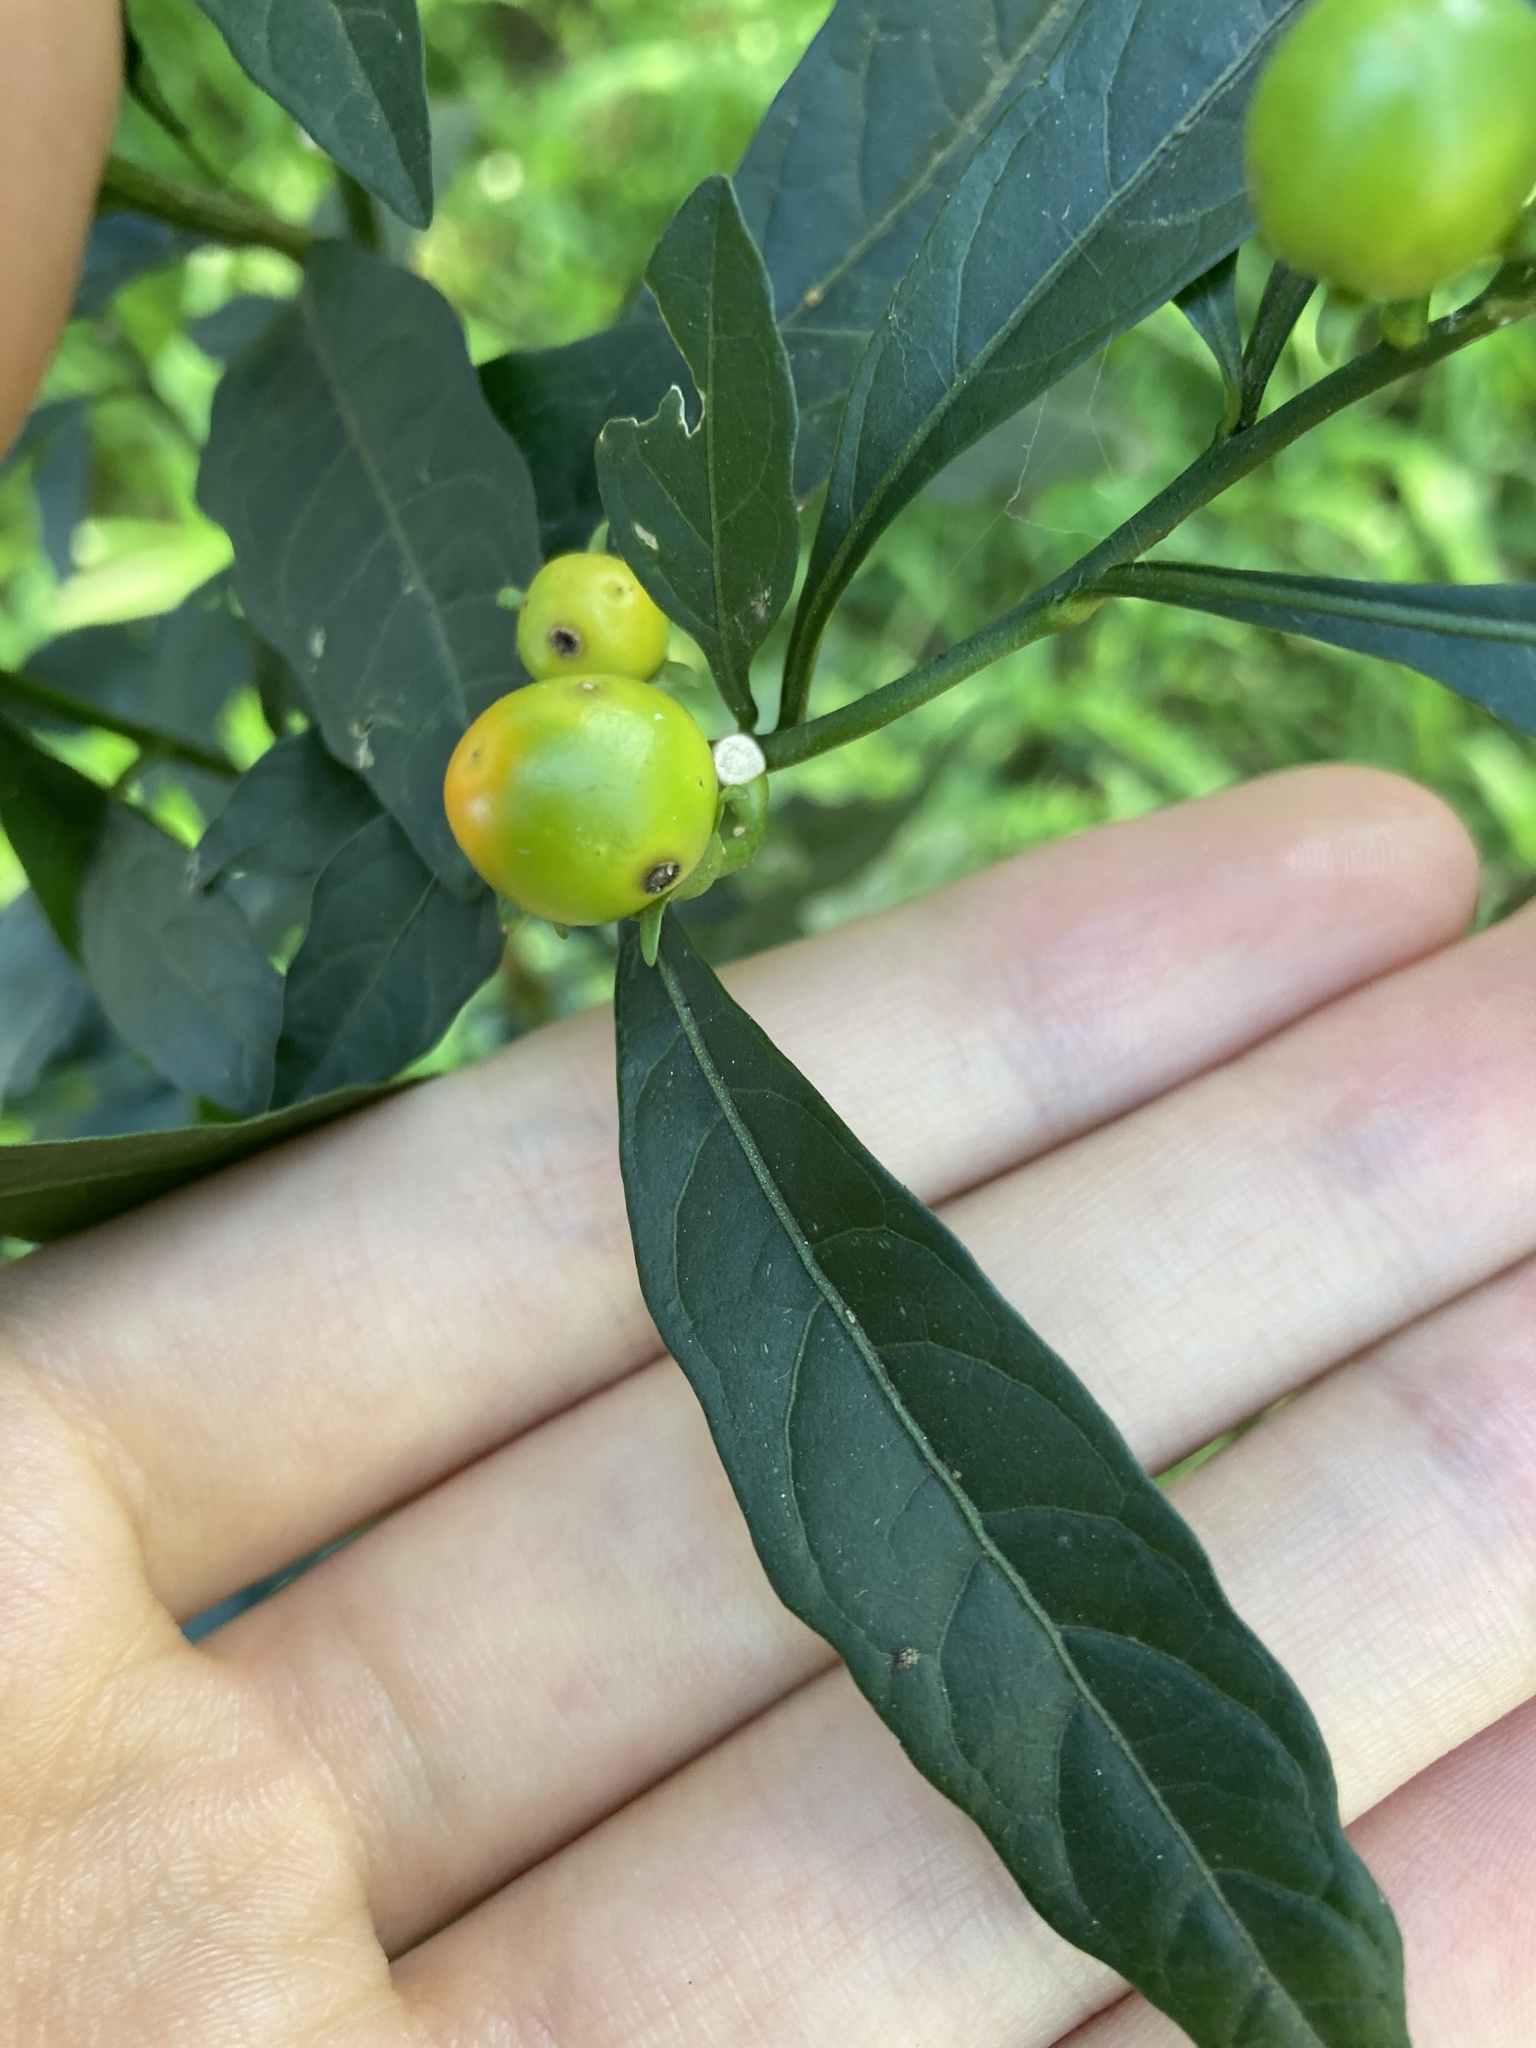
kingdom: Plantae
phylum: Tracheophyta
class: Magnoliopsida
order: Solanales
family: Solanaceae
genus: Solanum
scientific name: Solanum pseudocapsicum
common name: Jerusalem cherry
